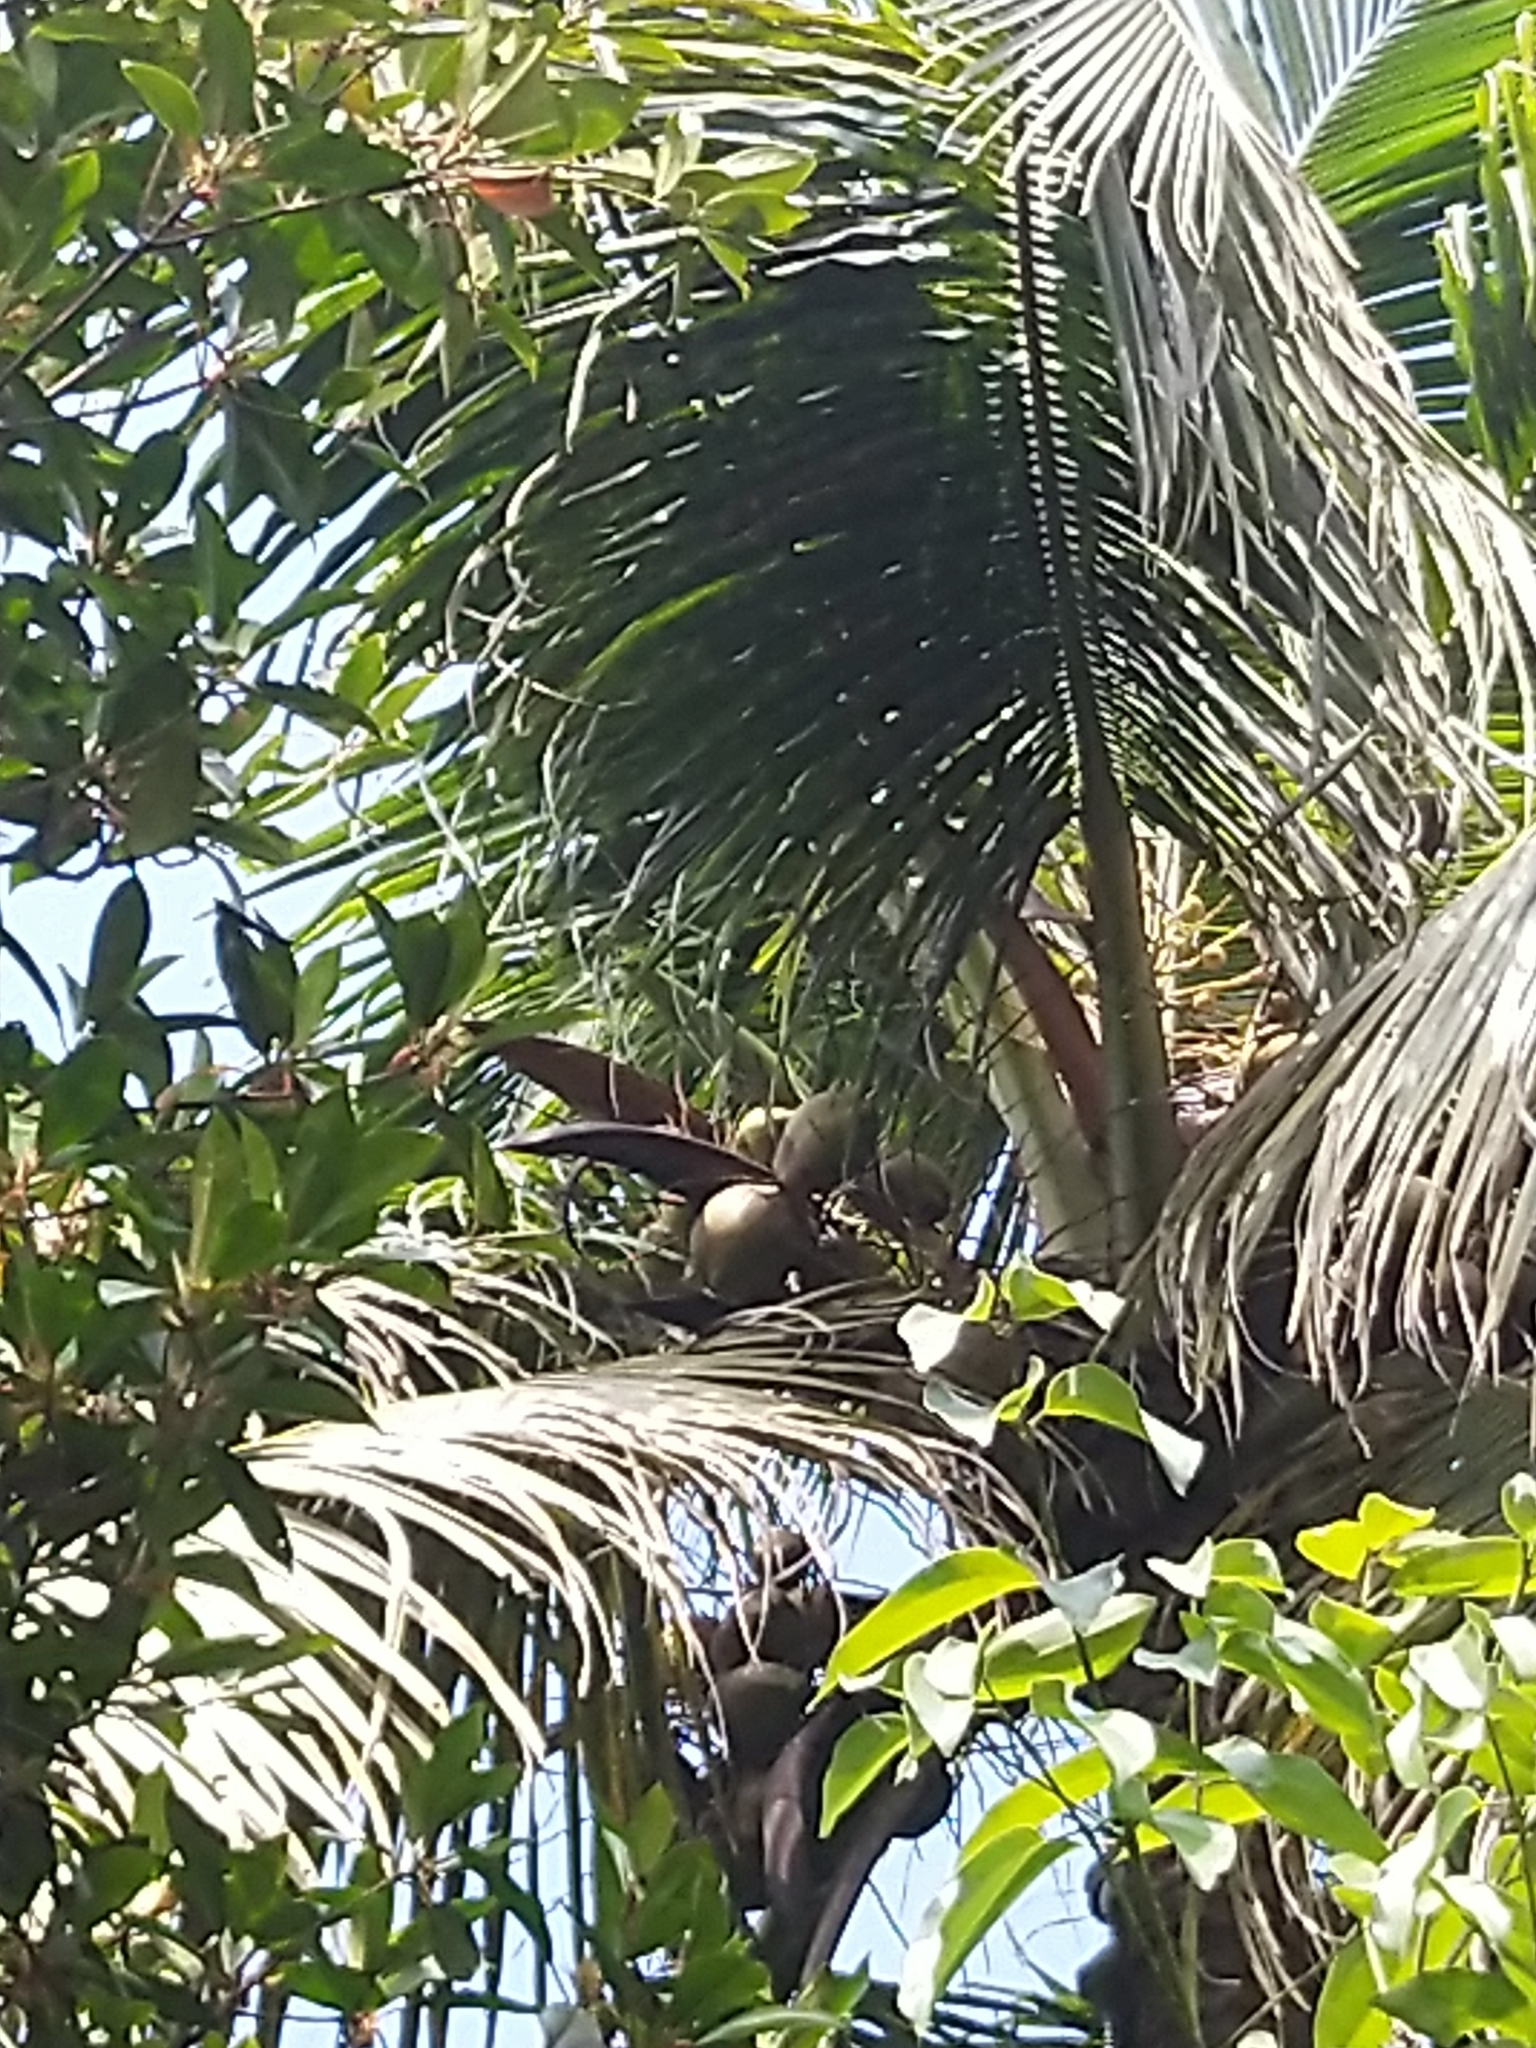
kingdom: Plantae
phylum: Tracheophyta
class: Liliopsida
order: Arecales
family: Arecaceae
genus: Cocos
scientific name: Cocos nucifera
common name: Coconut palm
